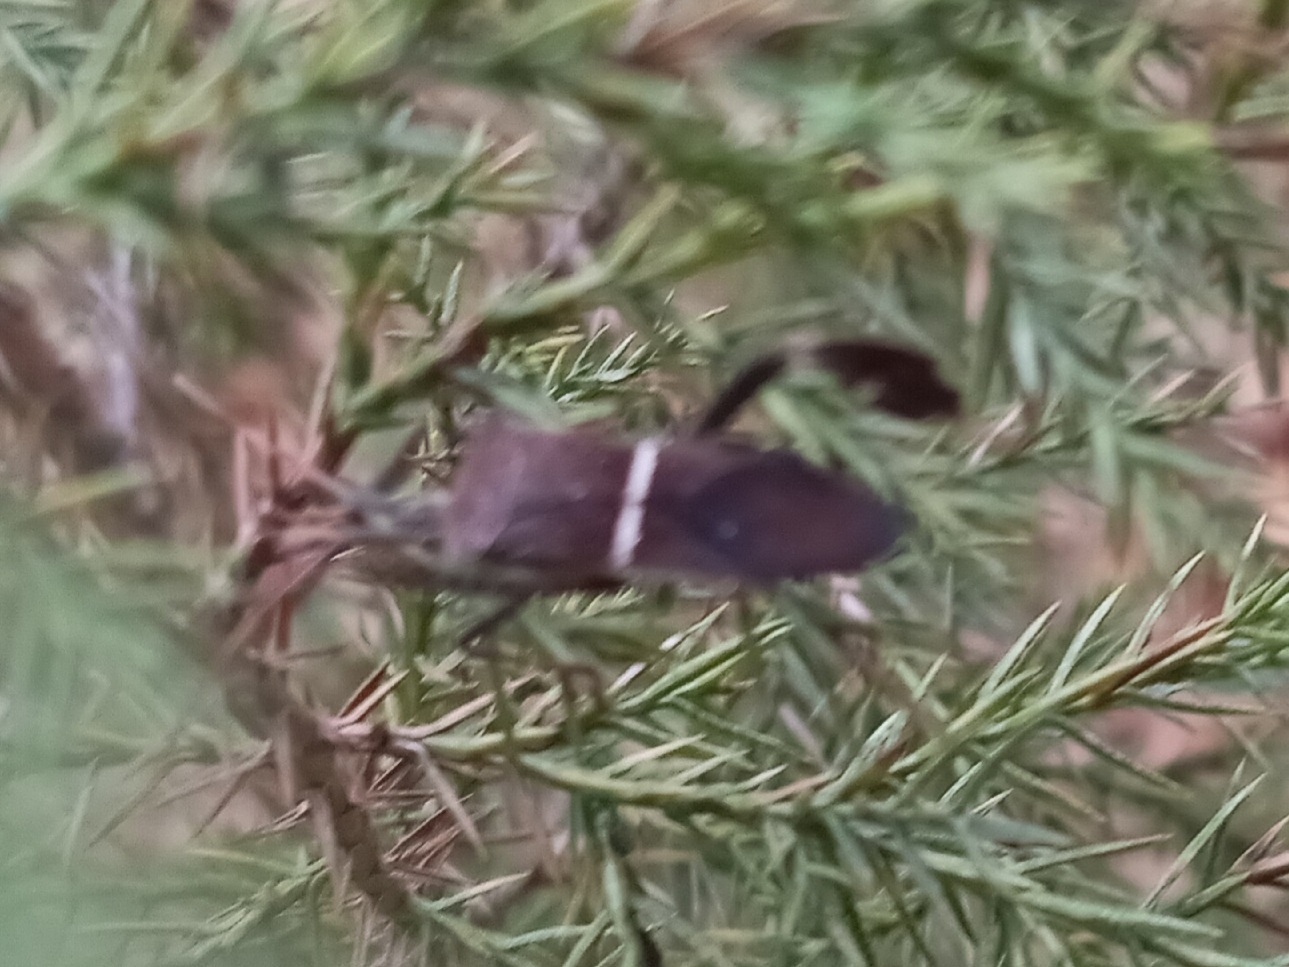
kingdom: Animalia
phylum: Arthropoda
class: Insecta
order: Hemiptera
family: Coreidae
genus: Leptoglossus
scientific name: Leptoglossus phyllopus
